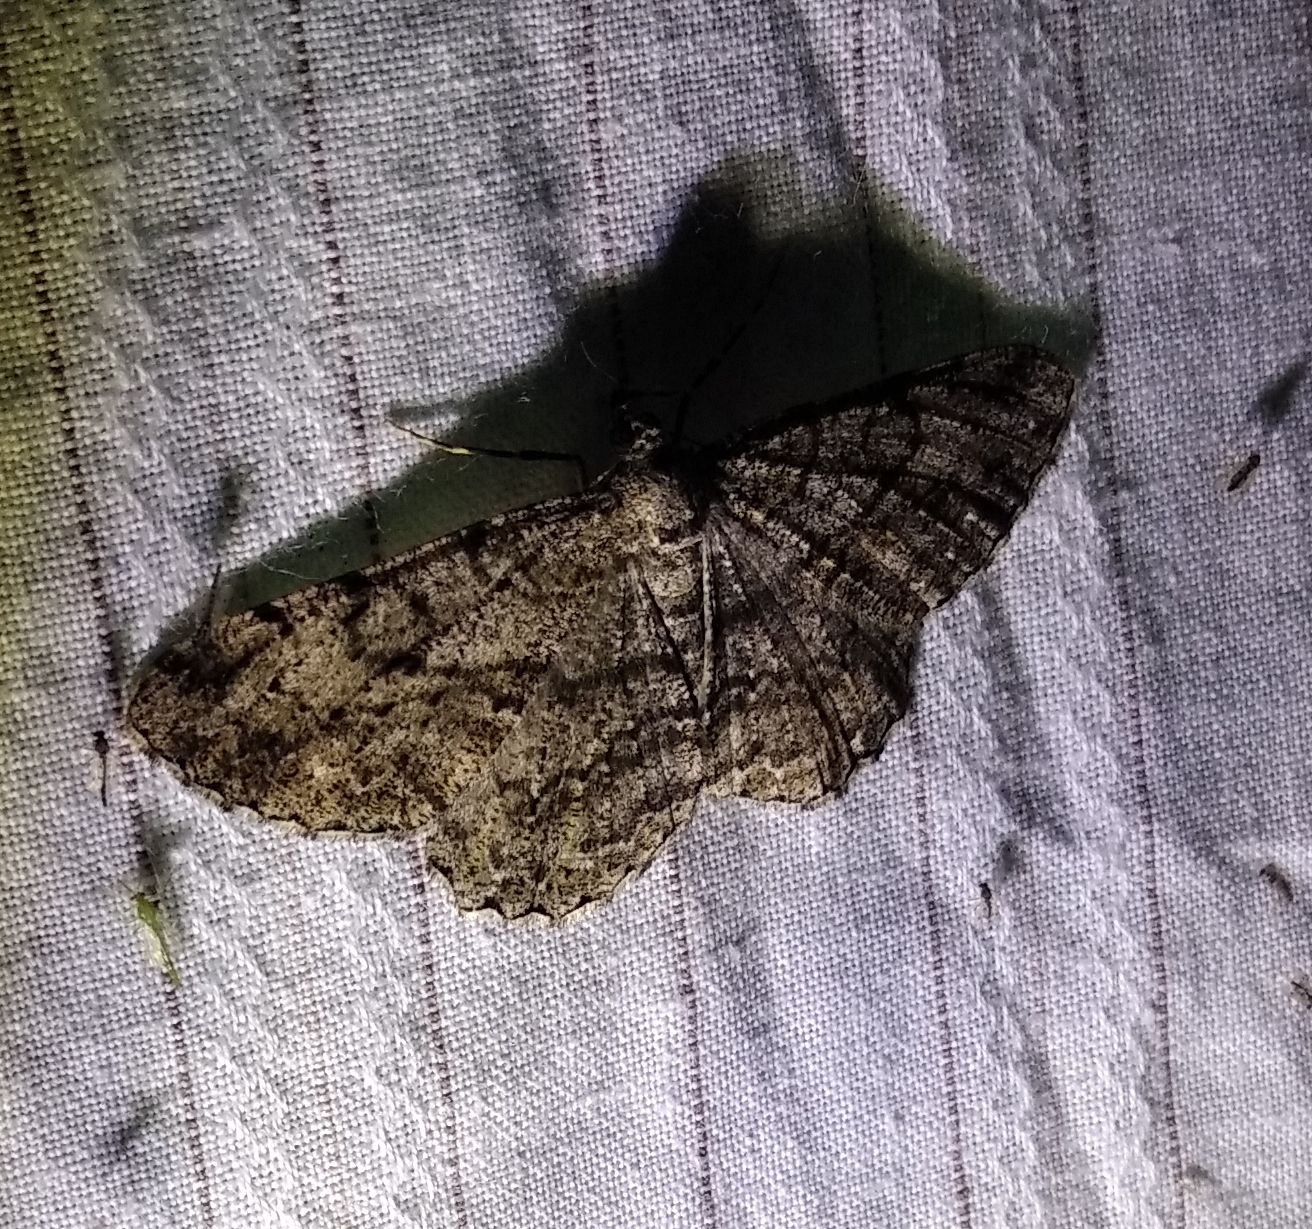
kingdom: Animalia
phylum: Arthropoda
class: Insecta
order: Lepidoptera
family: Geometridae
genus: Peribatodes
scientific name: Peribatodes rhomboidaria
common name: Willow beauty
